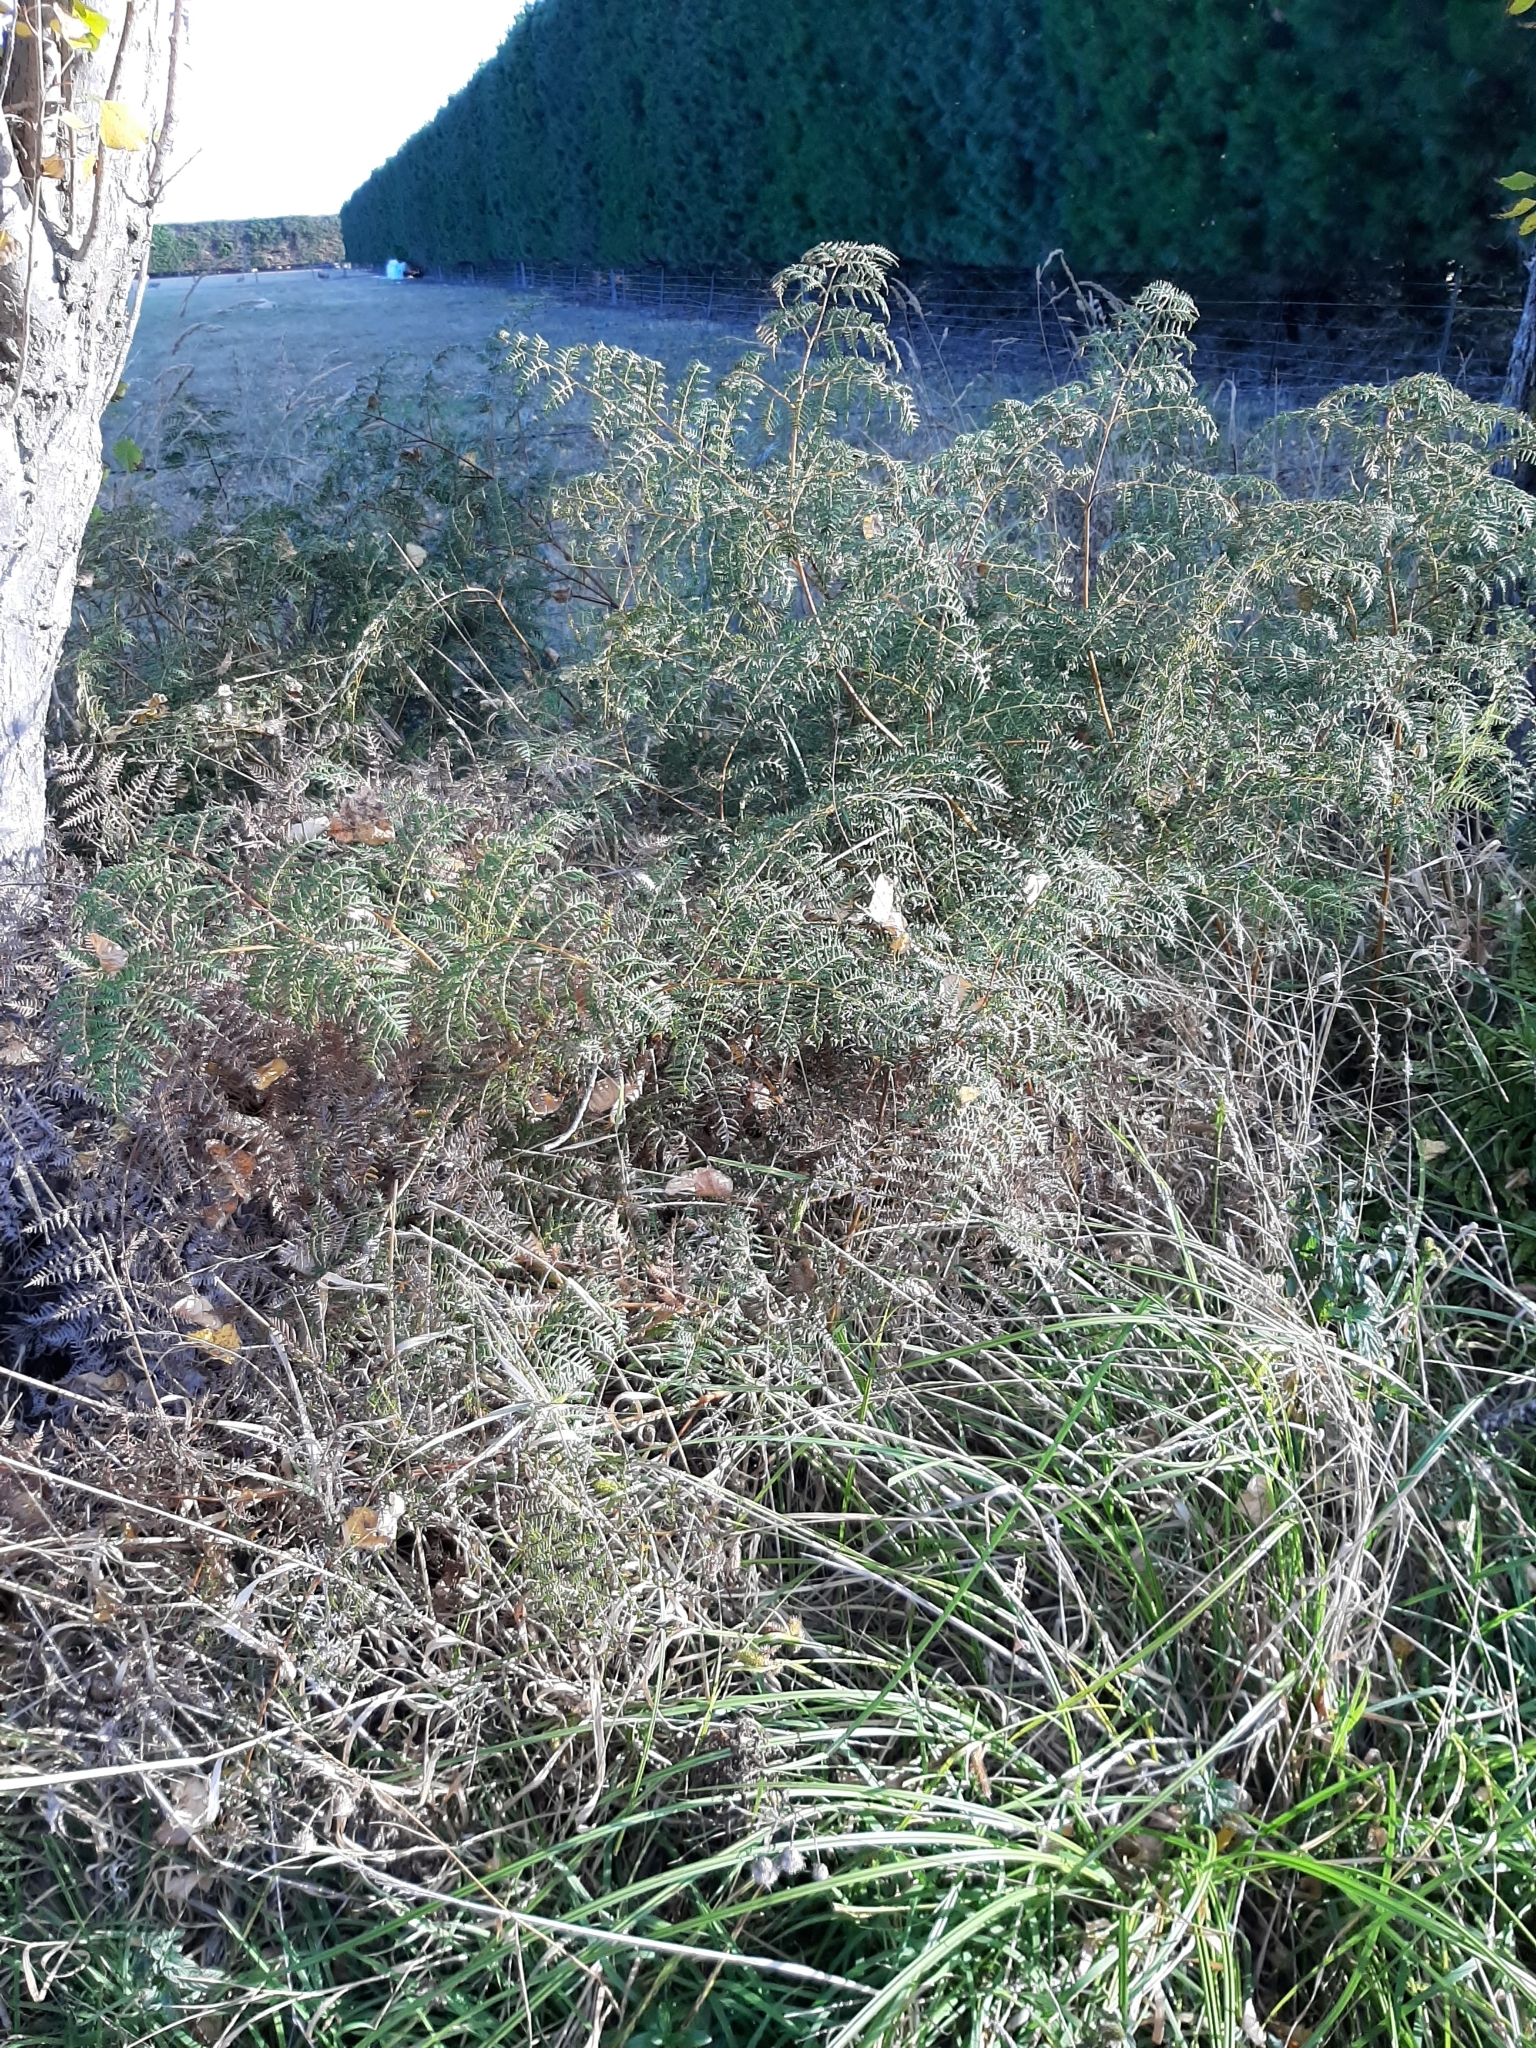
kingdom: Plantae
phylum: Tracheophyta
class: Polypodiopsida
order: Polypodiales
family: Dennstaedtiaceae
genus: Pteridium
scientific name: Pteridium esculentum
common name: Bracken fern
